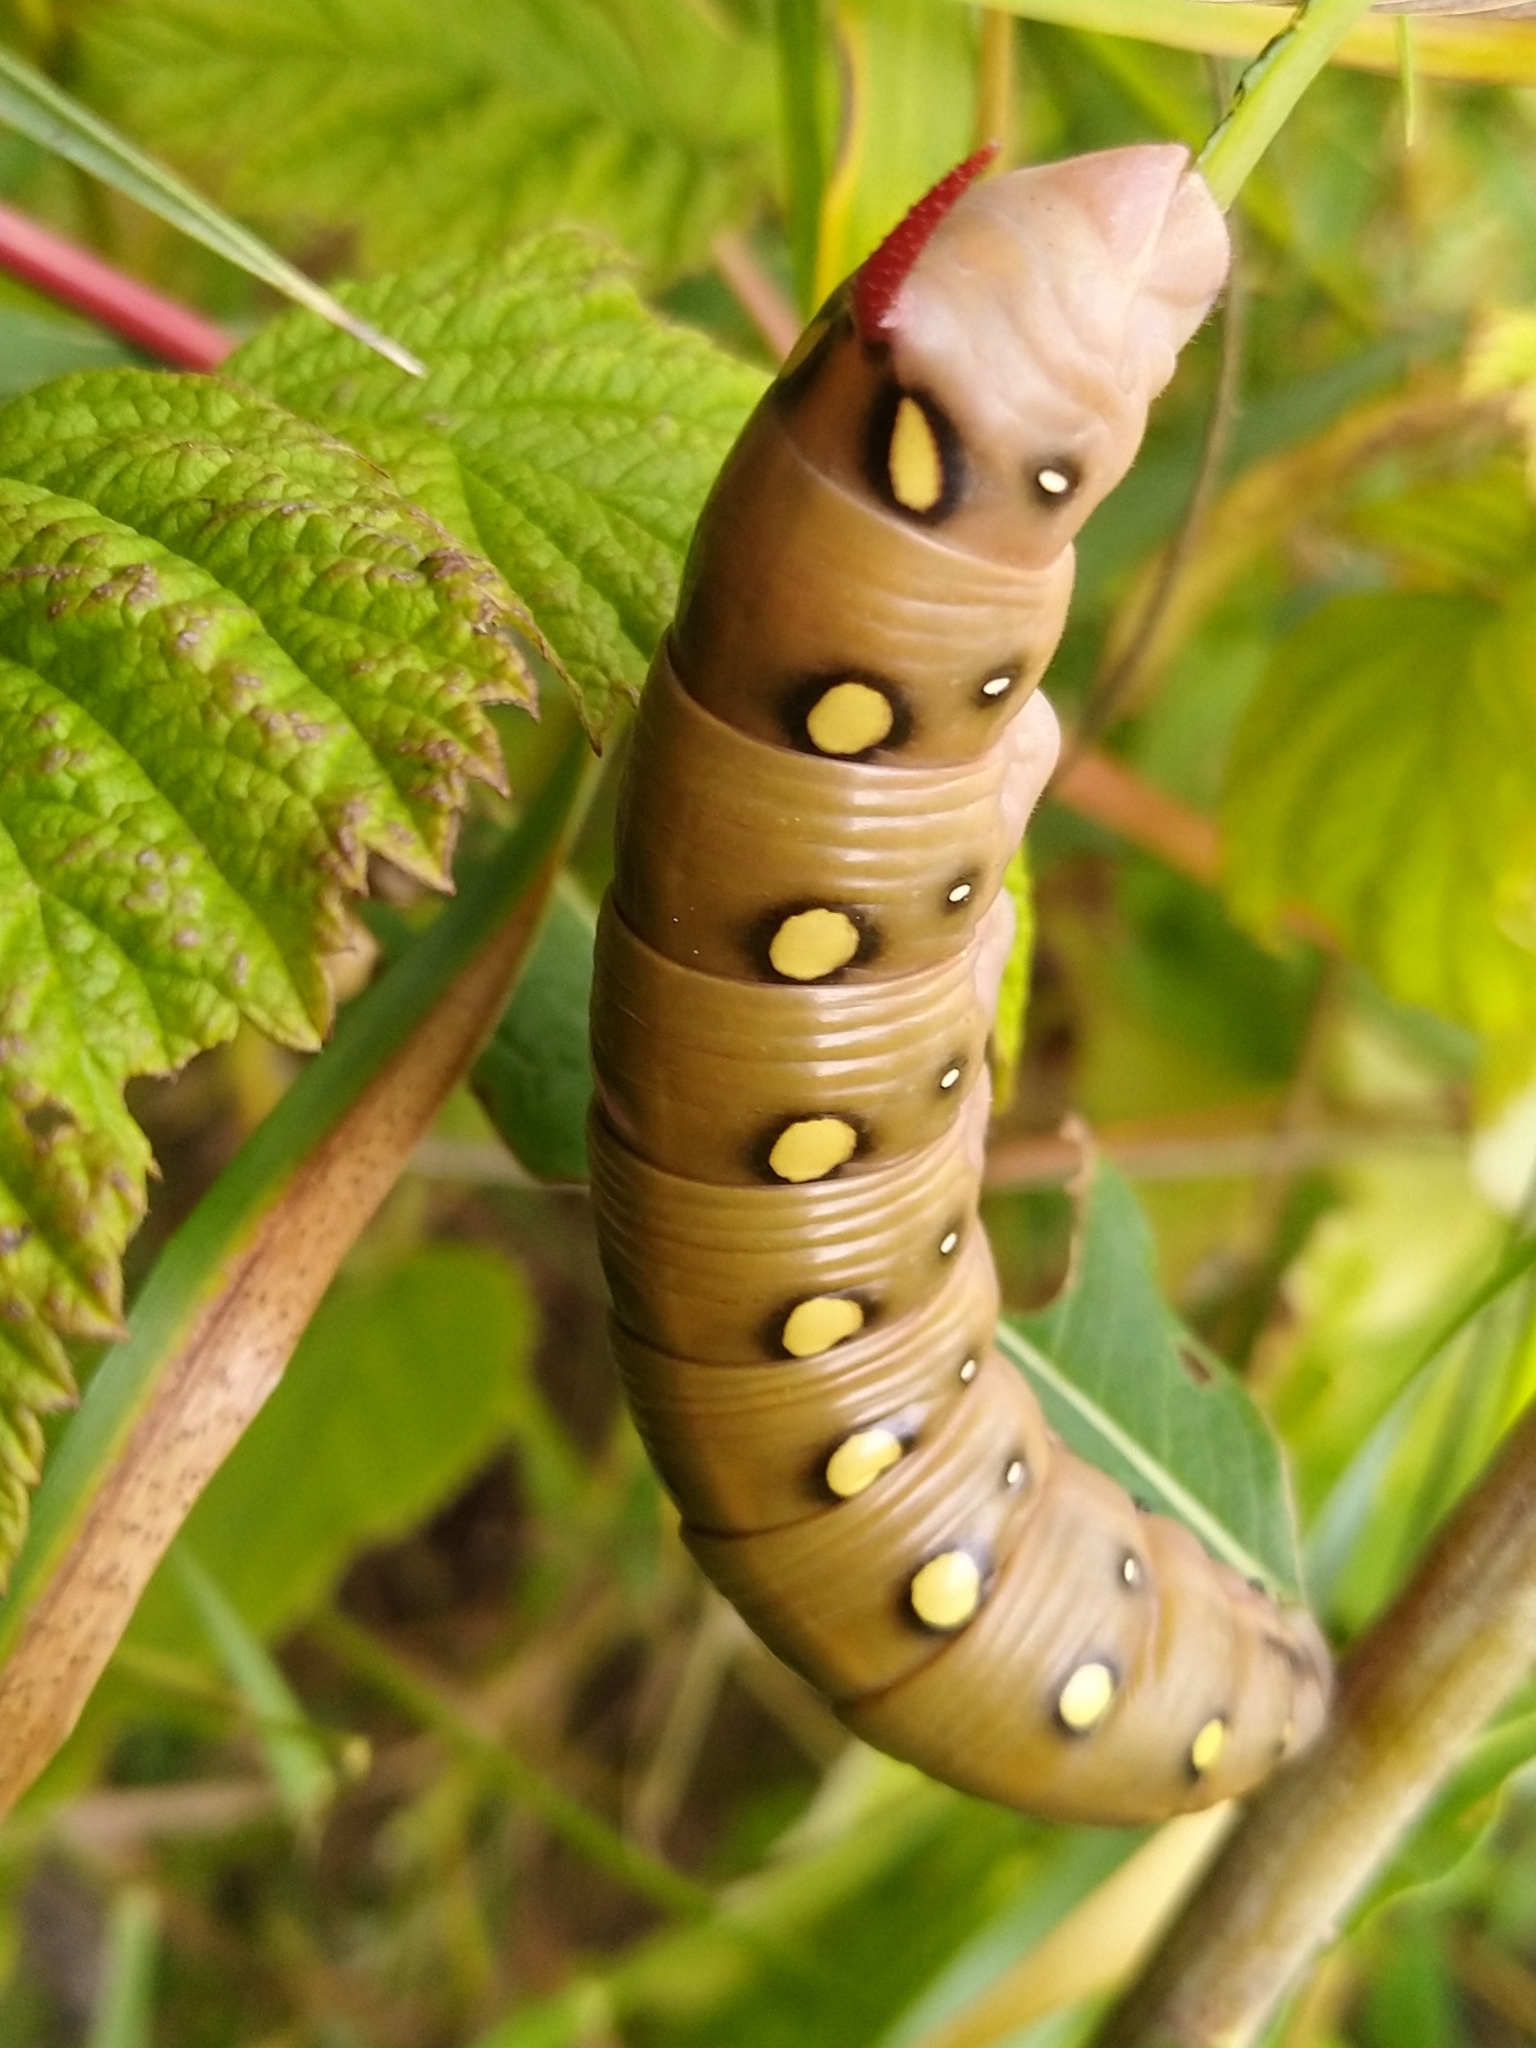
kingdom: Animalia
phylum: Arthropoda
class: Insecta
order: Lepidoptera
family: Sphingidae
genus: Hyles
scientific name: Hyles gallii
